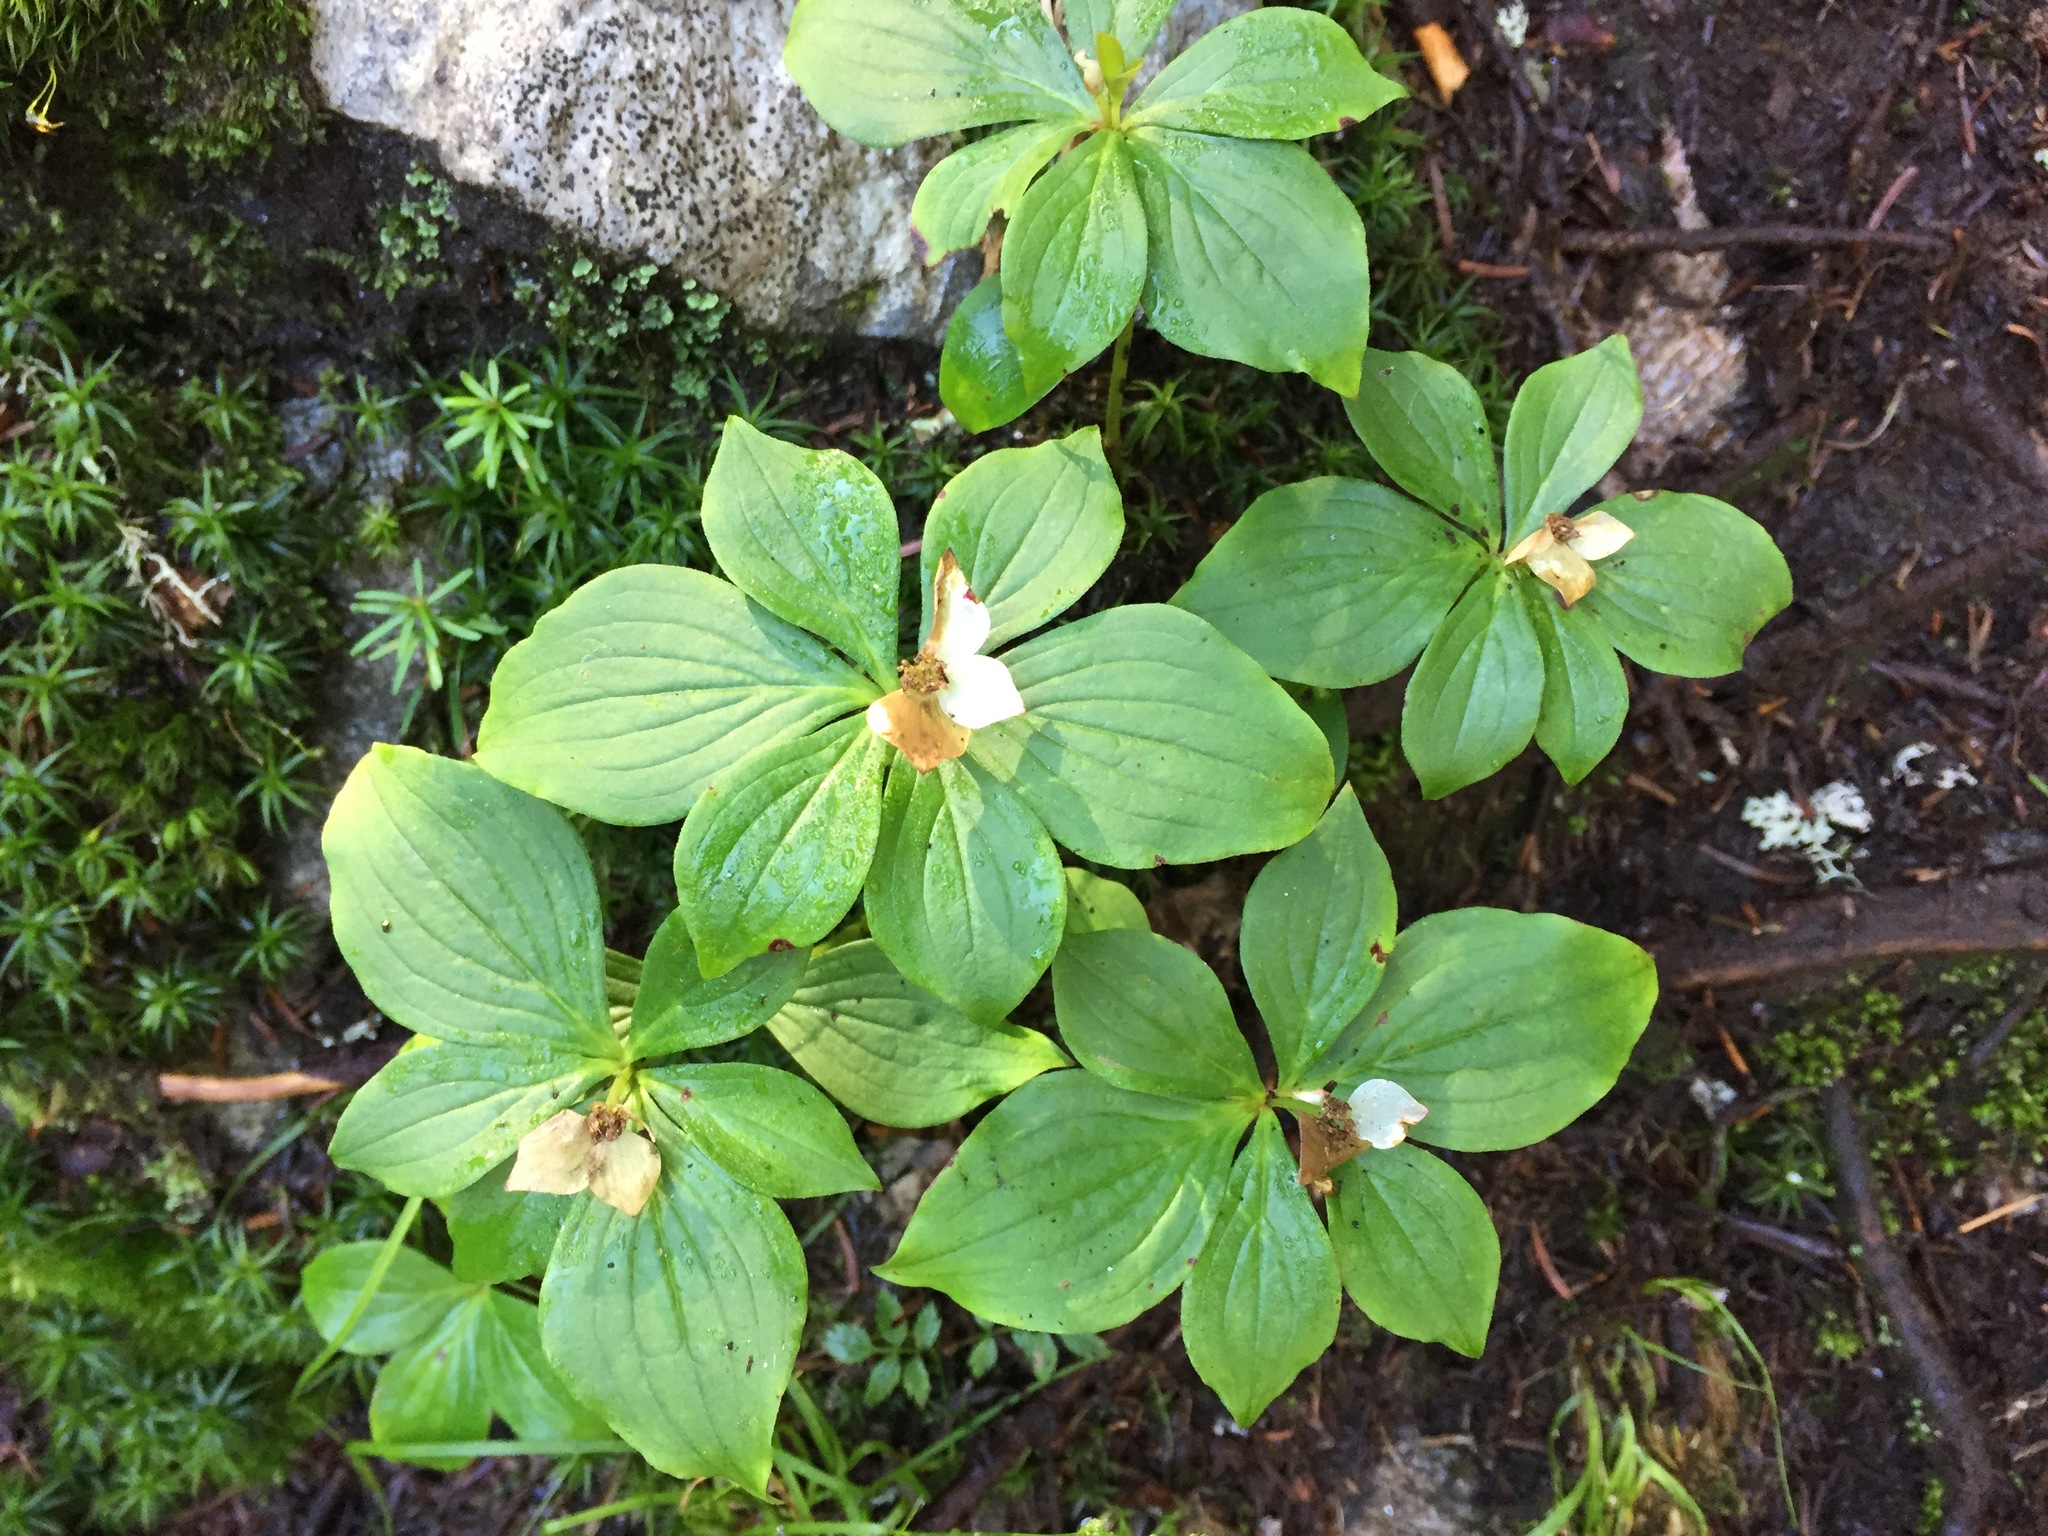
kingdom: Plantae
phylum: Tracheophyta
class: Magnoliopsida
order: Cornales
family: Cornaceae
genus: Cornus
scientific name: Cornus canadensis
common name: Creeping dogwood
